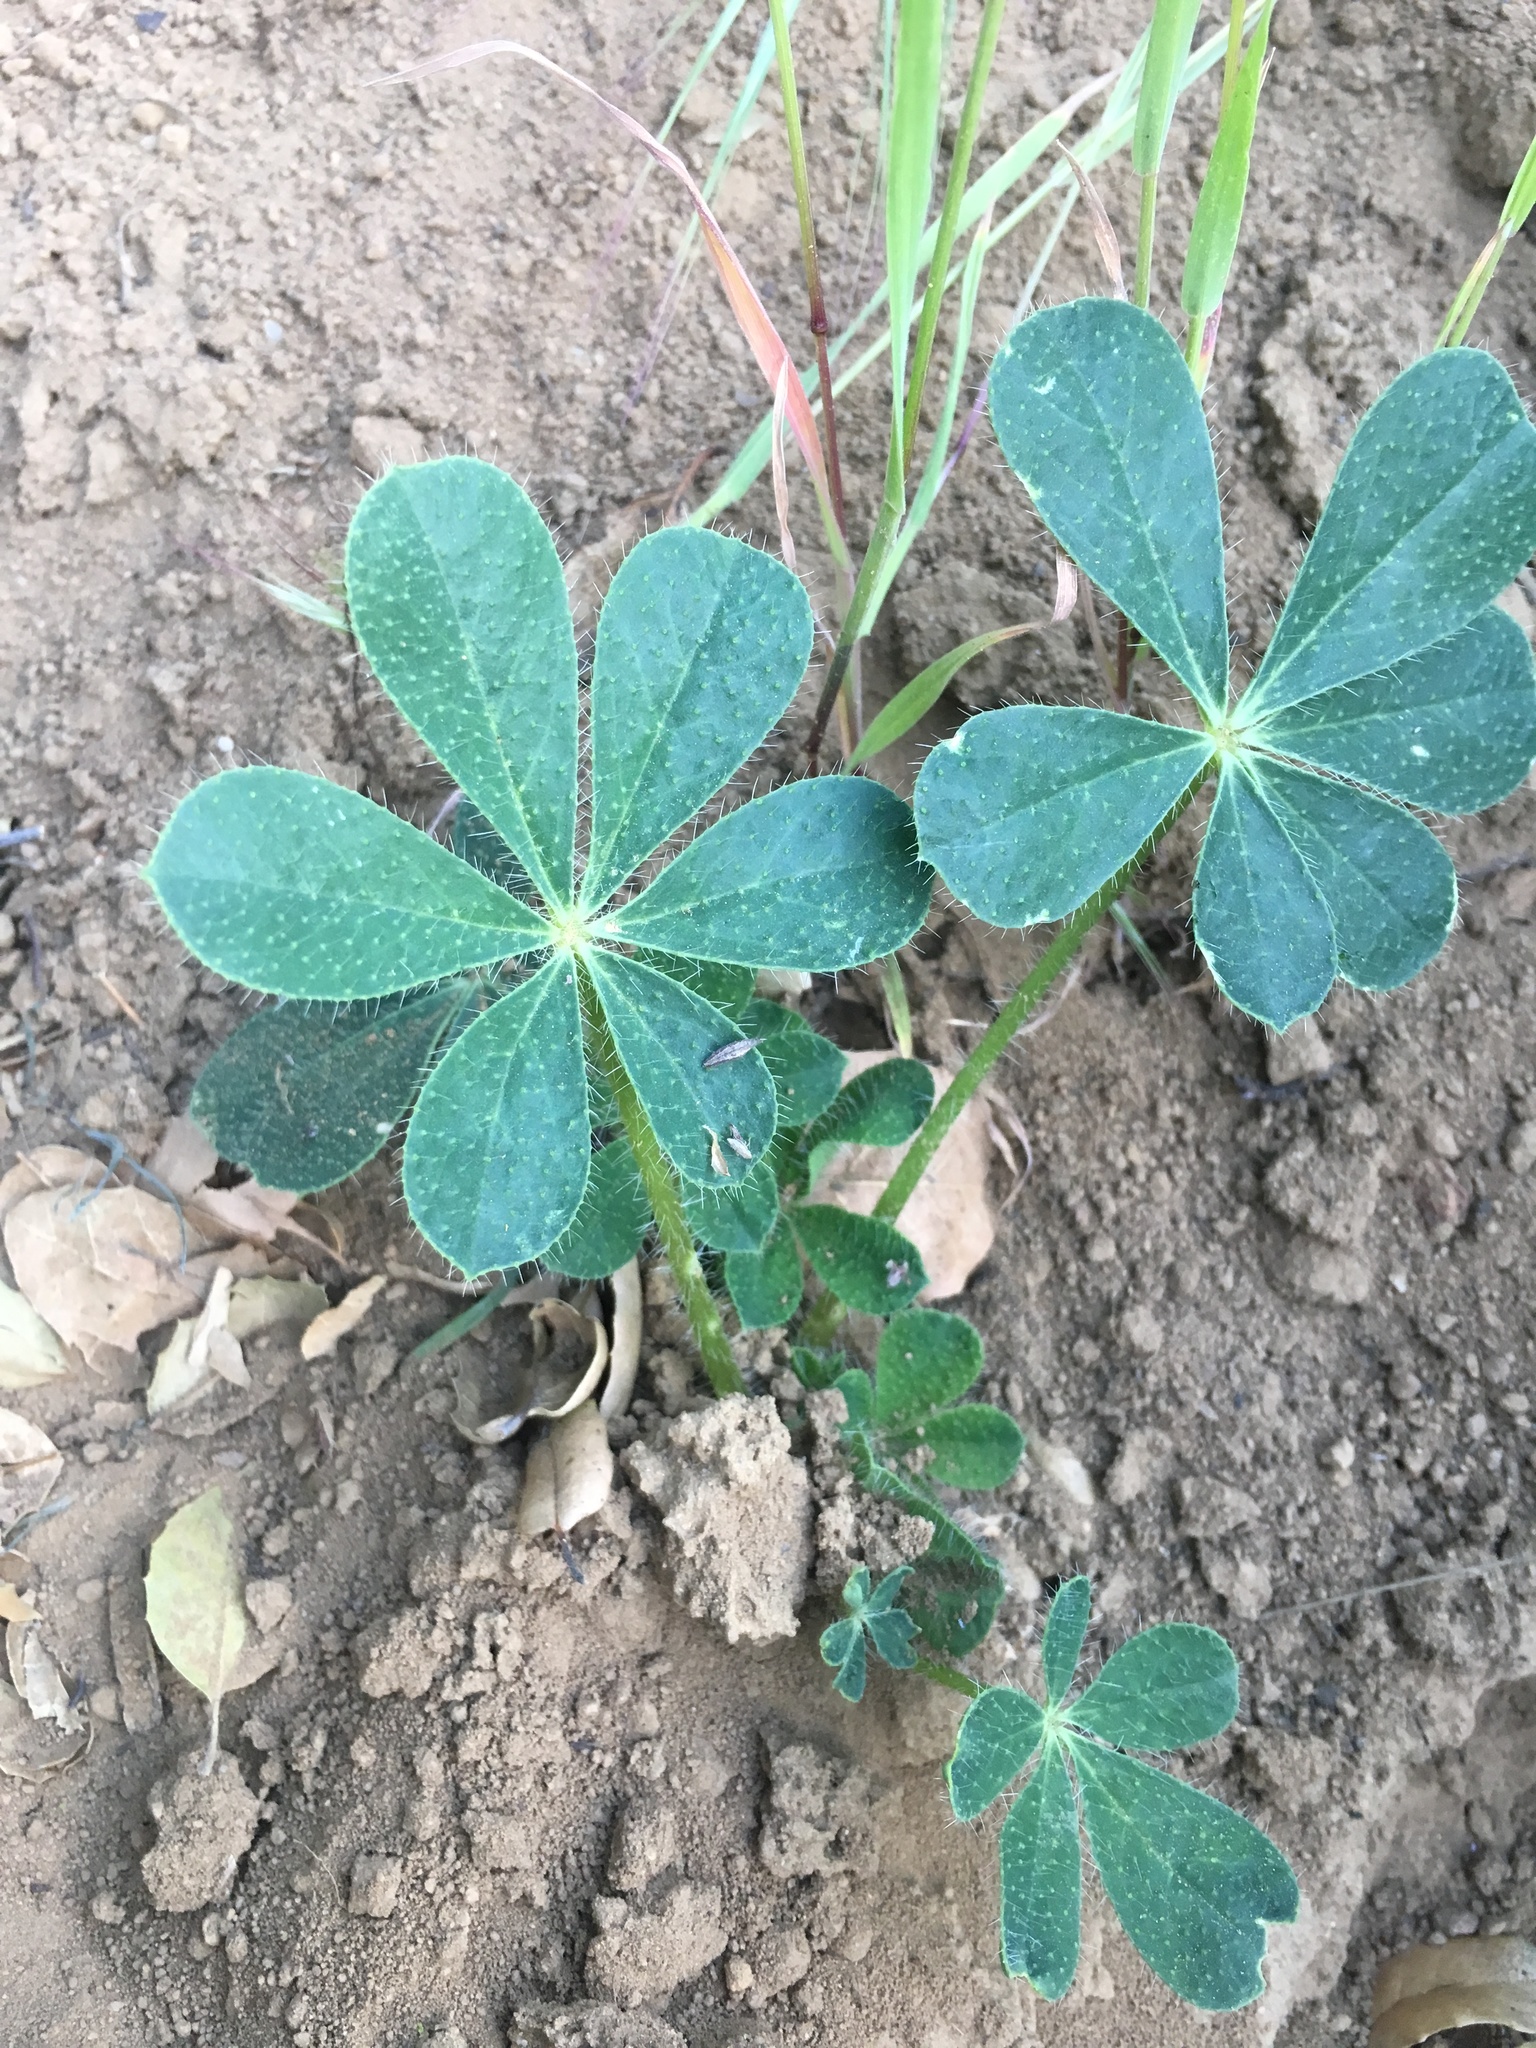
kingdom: Plantae
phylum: Tracheophyta
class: Magnoliopsida
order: Fabales
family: Fabaceae
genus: Lupinus
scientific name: Lupinus hirsutissimus
